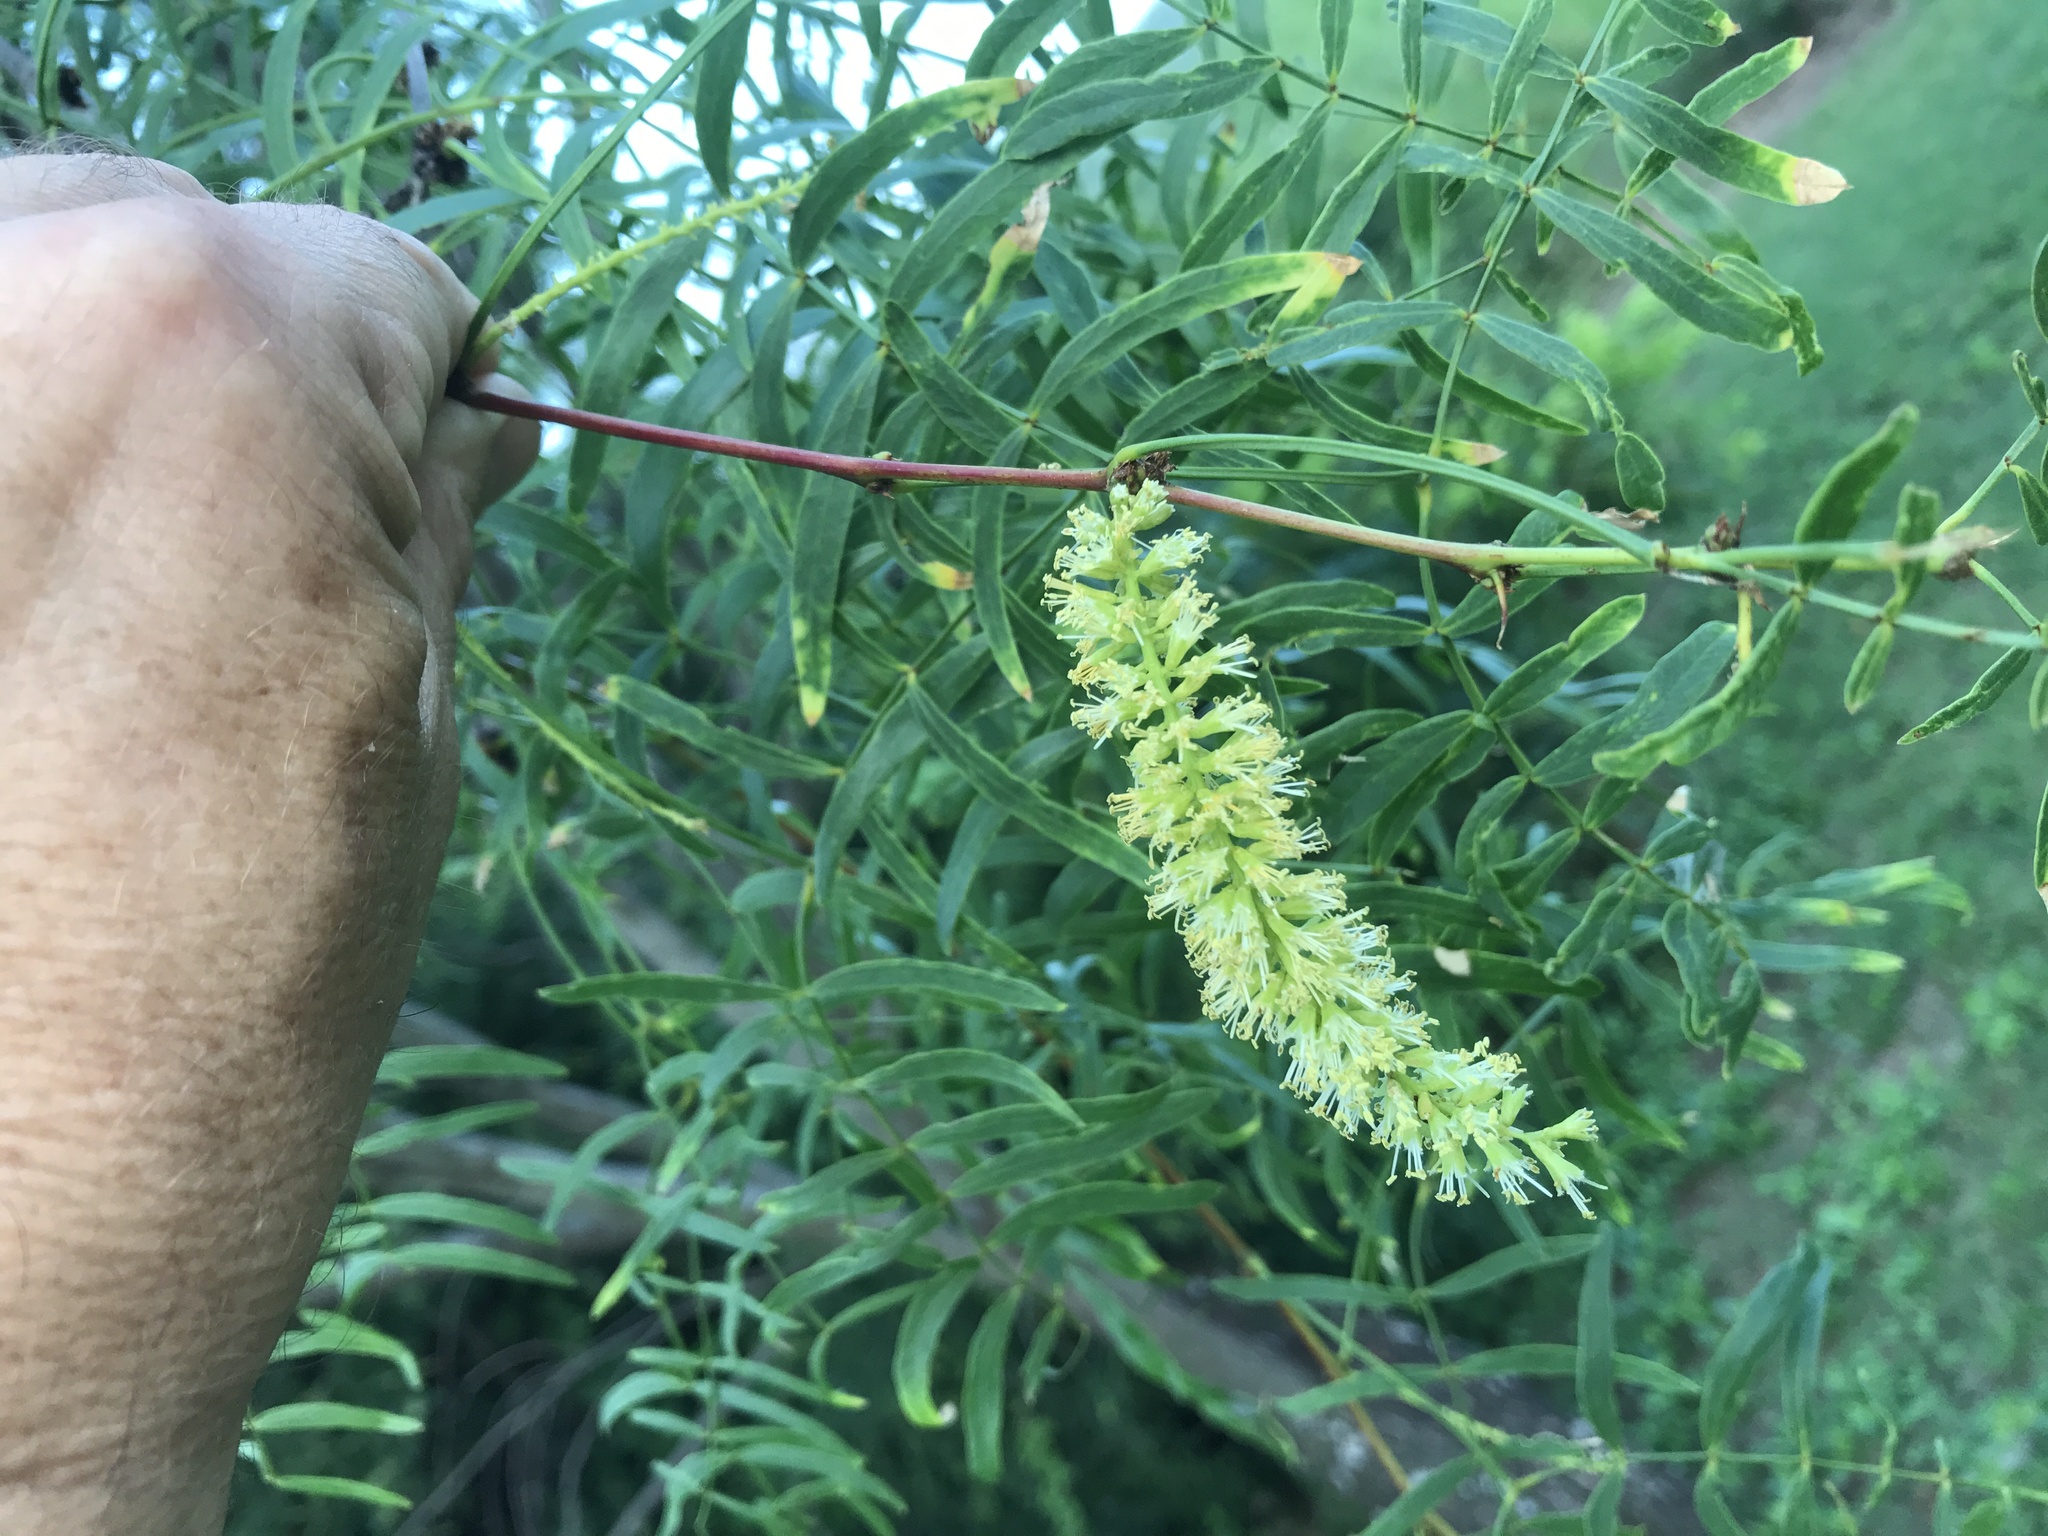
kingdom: Plantae
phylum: Tracheophyta
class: Magnoliopsida
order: Fabales
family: Fabaceae
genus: Prosopis
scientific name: Prosopis glandulosa
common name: Honey mesquite
